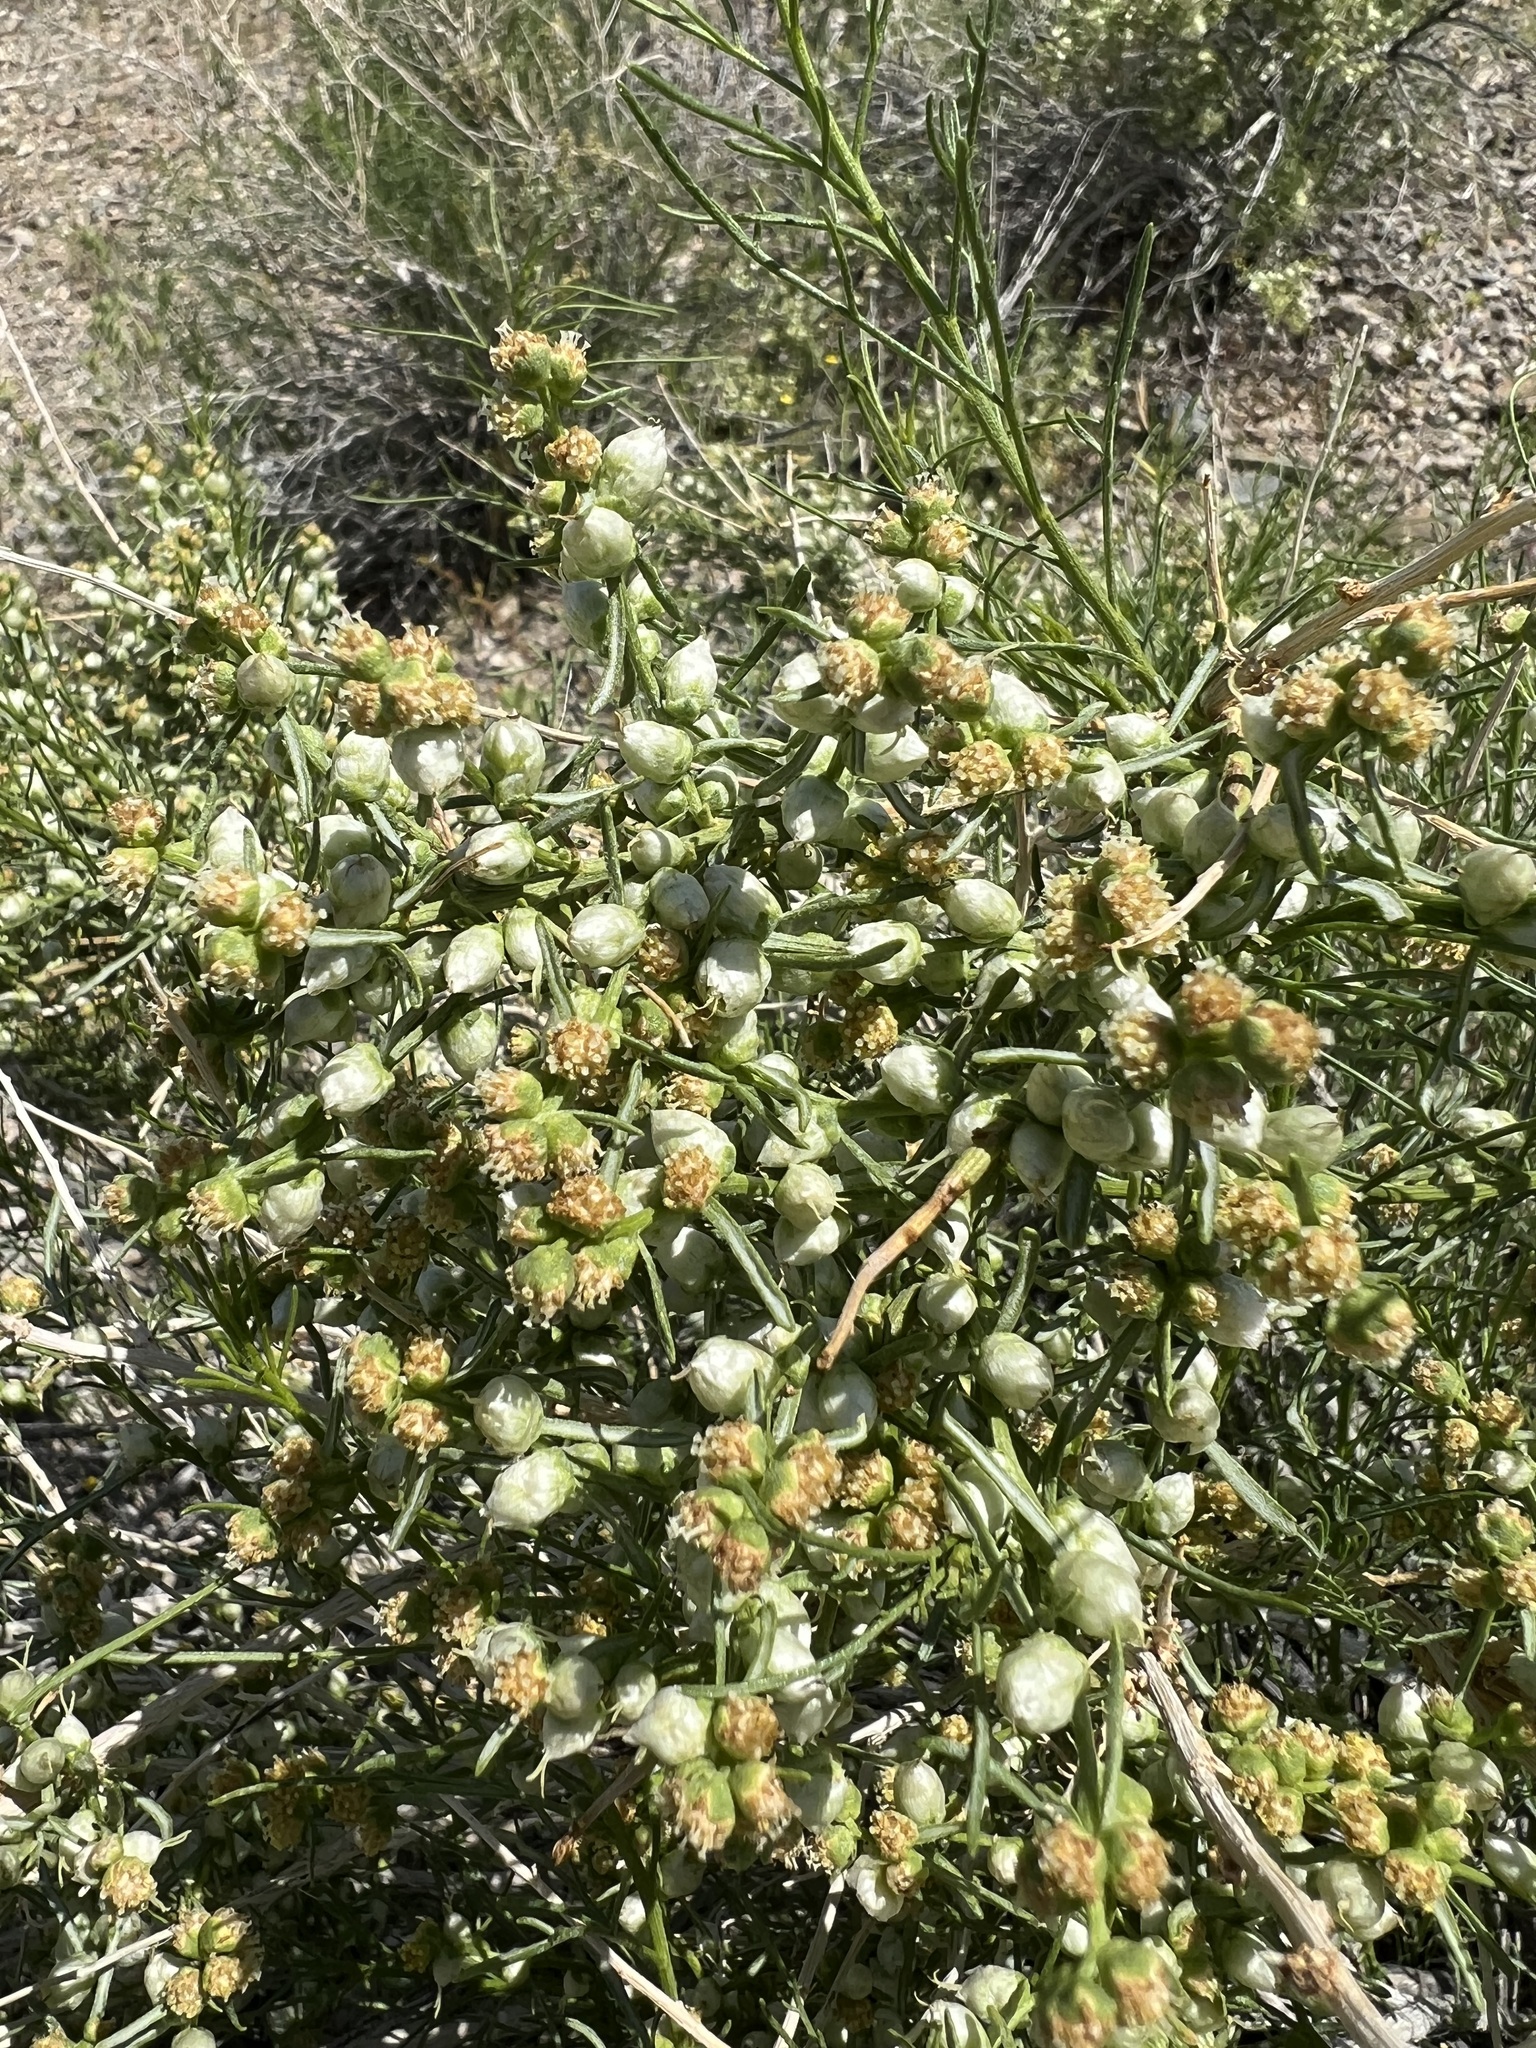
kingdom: Plantae
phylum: Tracheophyta
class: Magnoliopsida
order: Asterales
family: Asteraceae
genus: Ambrosia
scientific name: Ambrosia salsola
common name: Burrobrush
